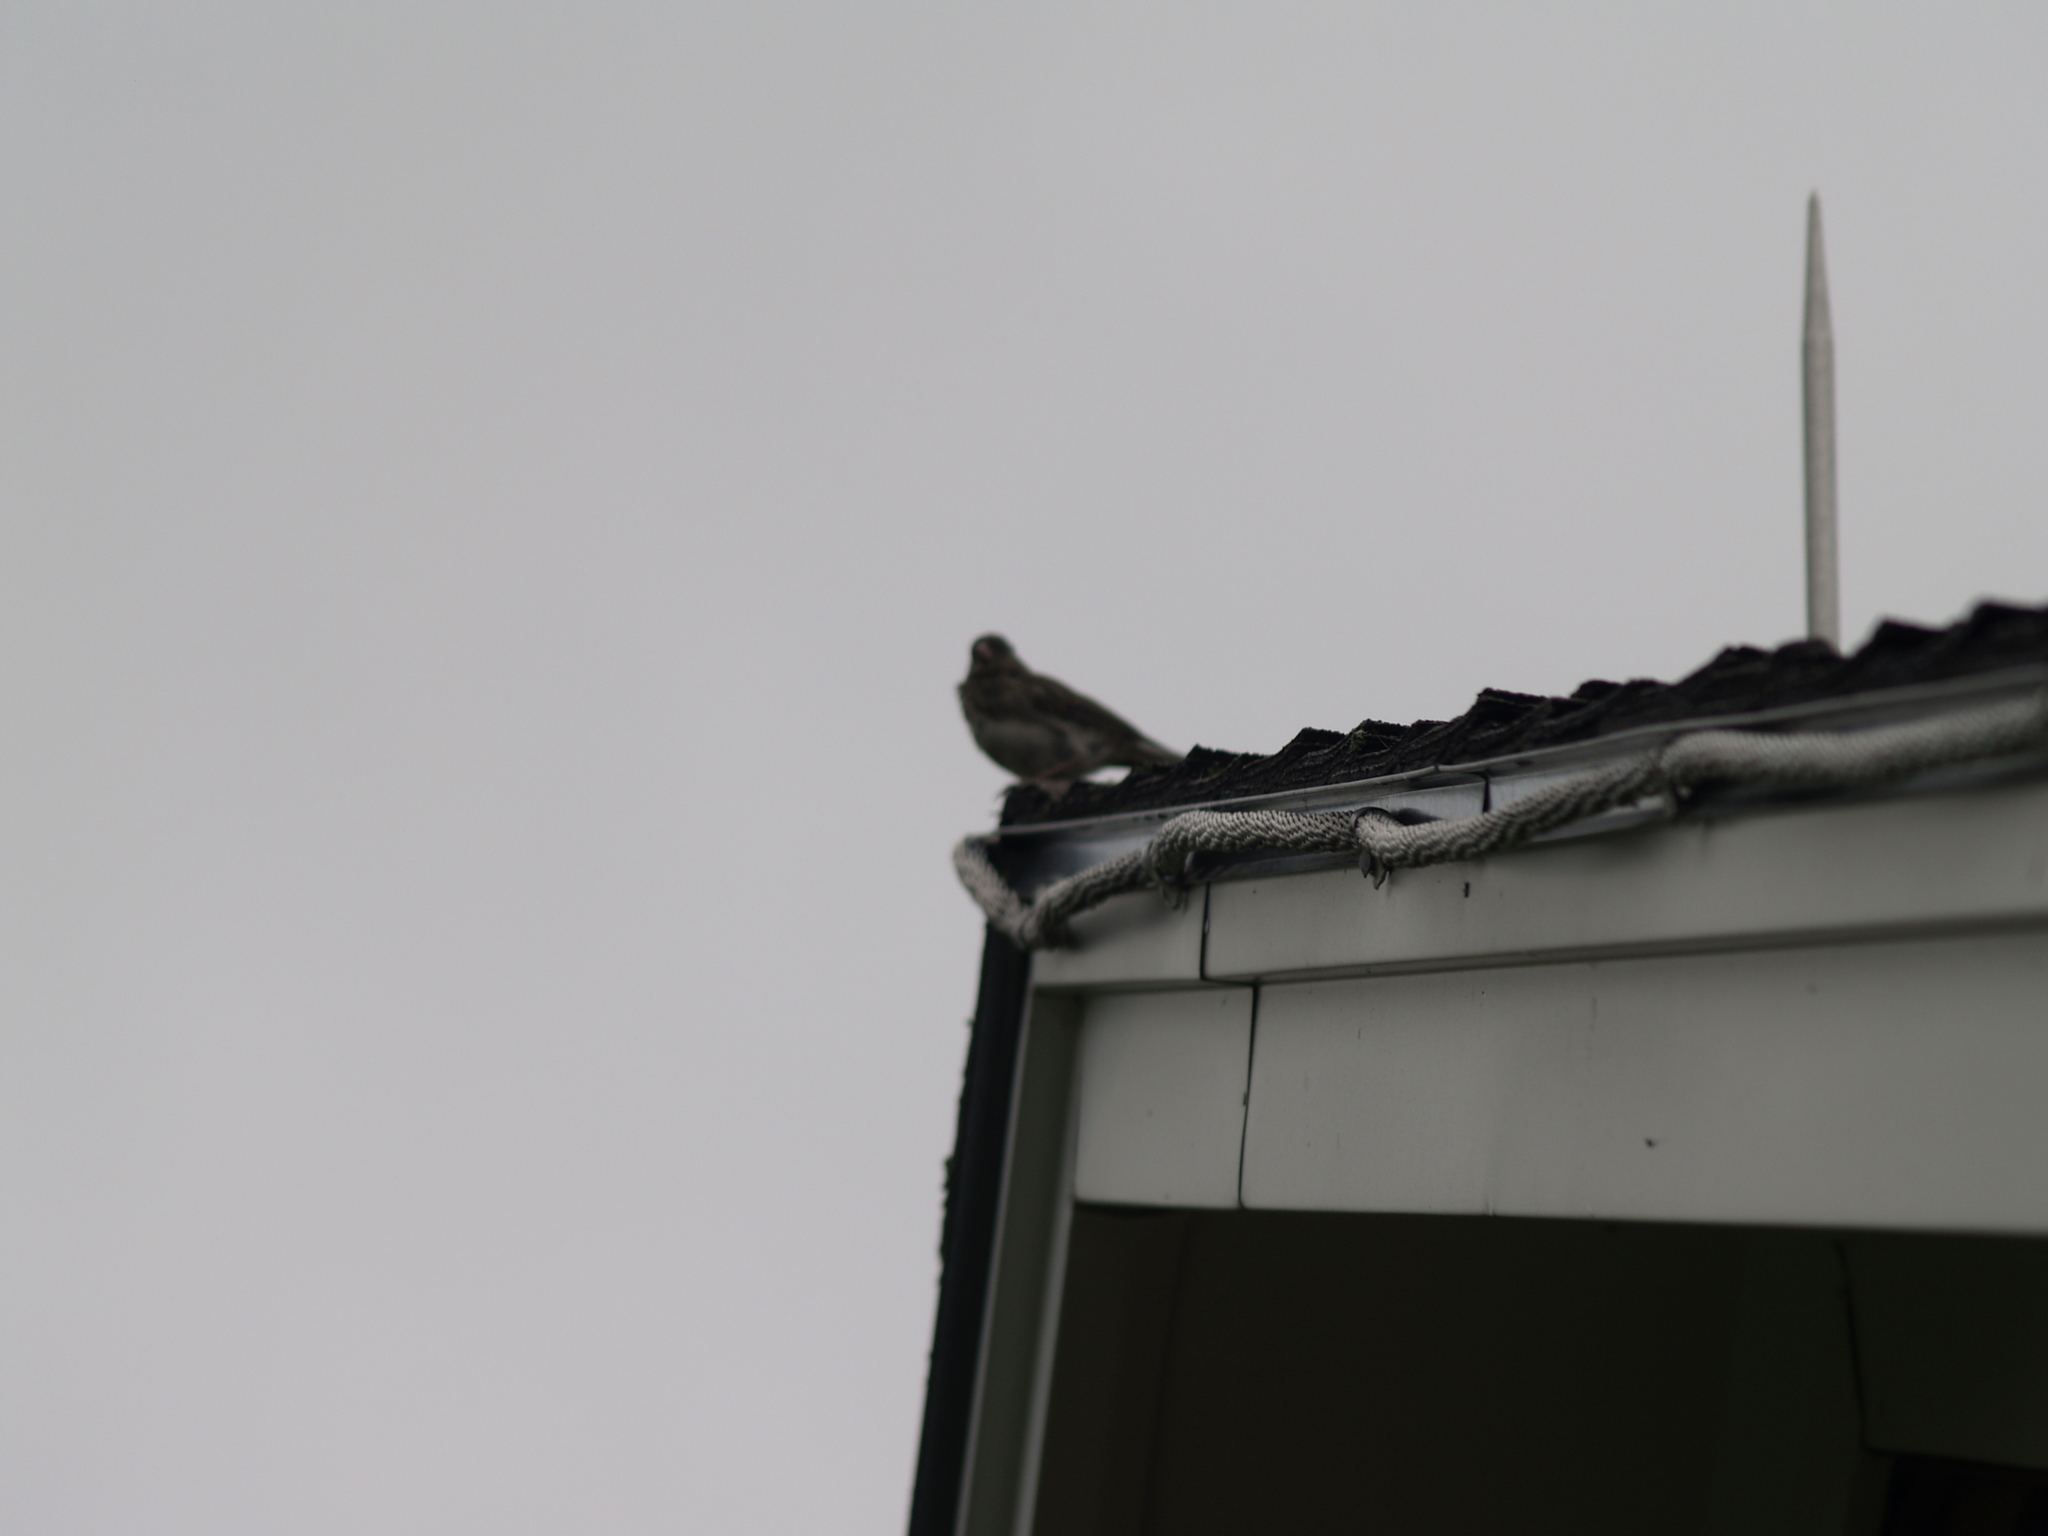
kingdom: Animalia
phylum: Chordata
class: Aves
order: Passeriformes
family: Passerellidae
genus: Junco
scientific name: Junco hyemalis
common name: Dark-eyed junco
